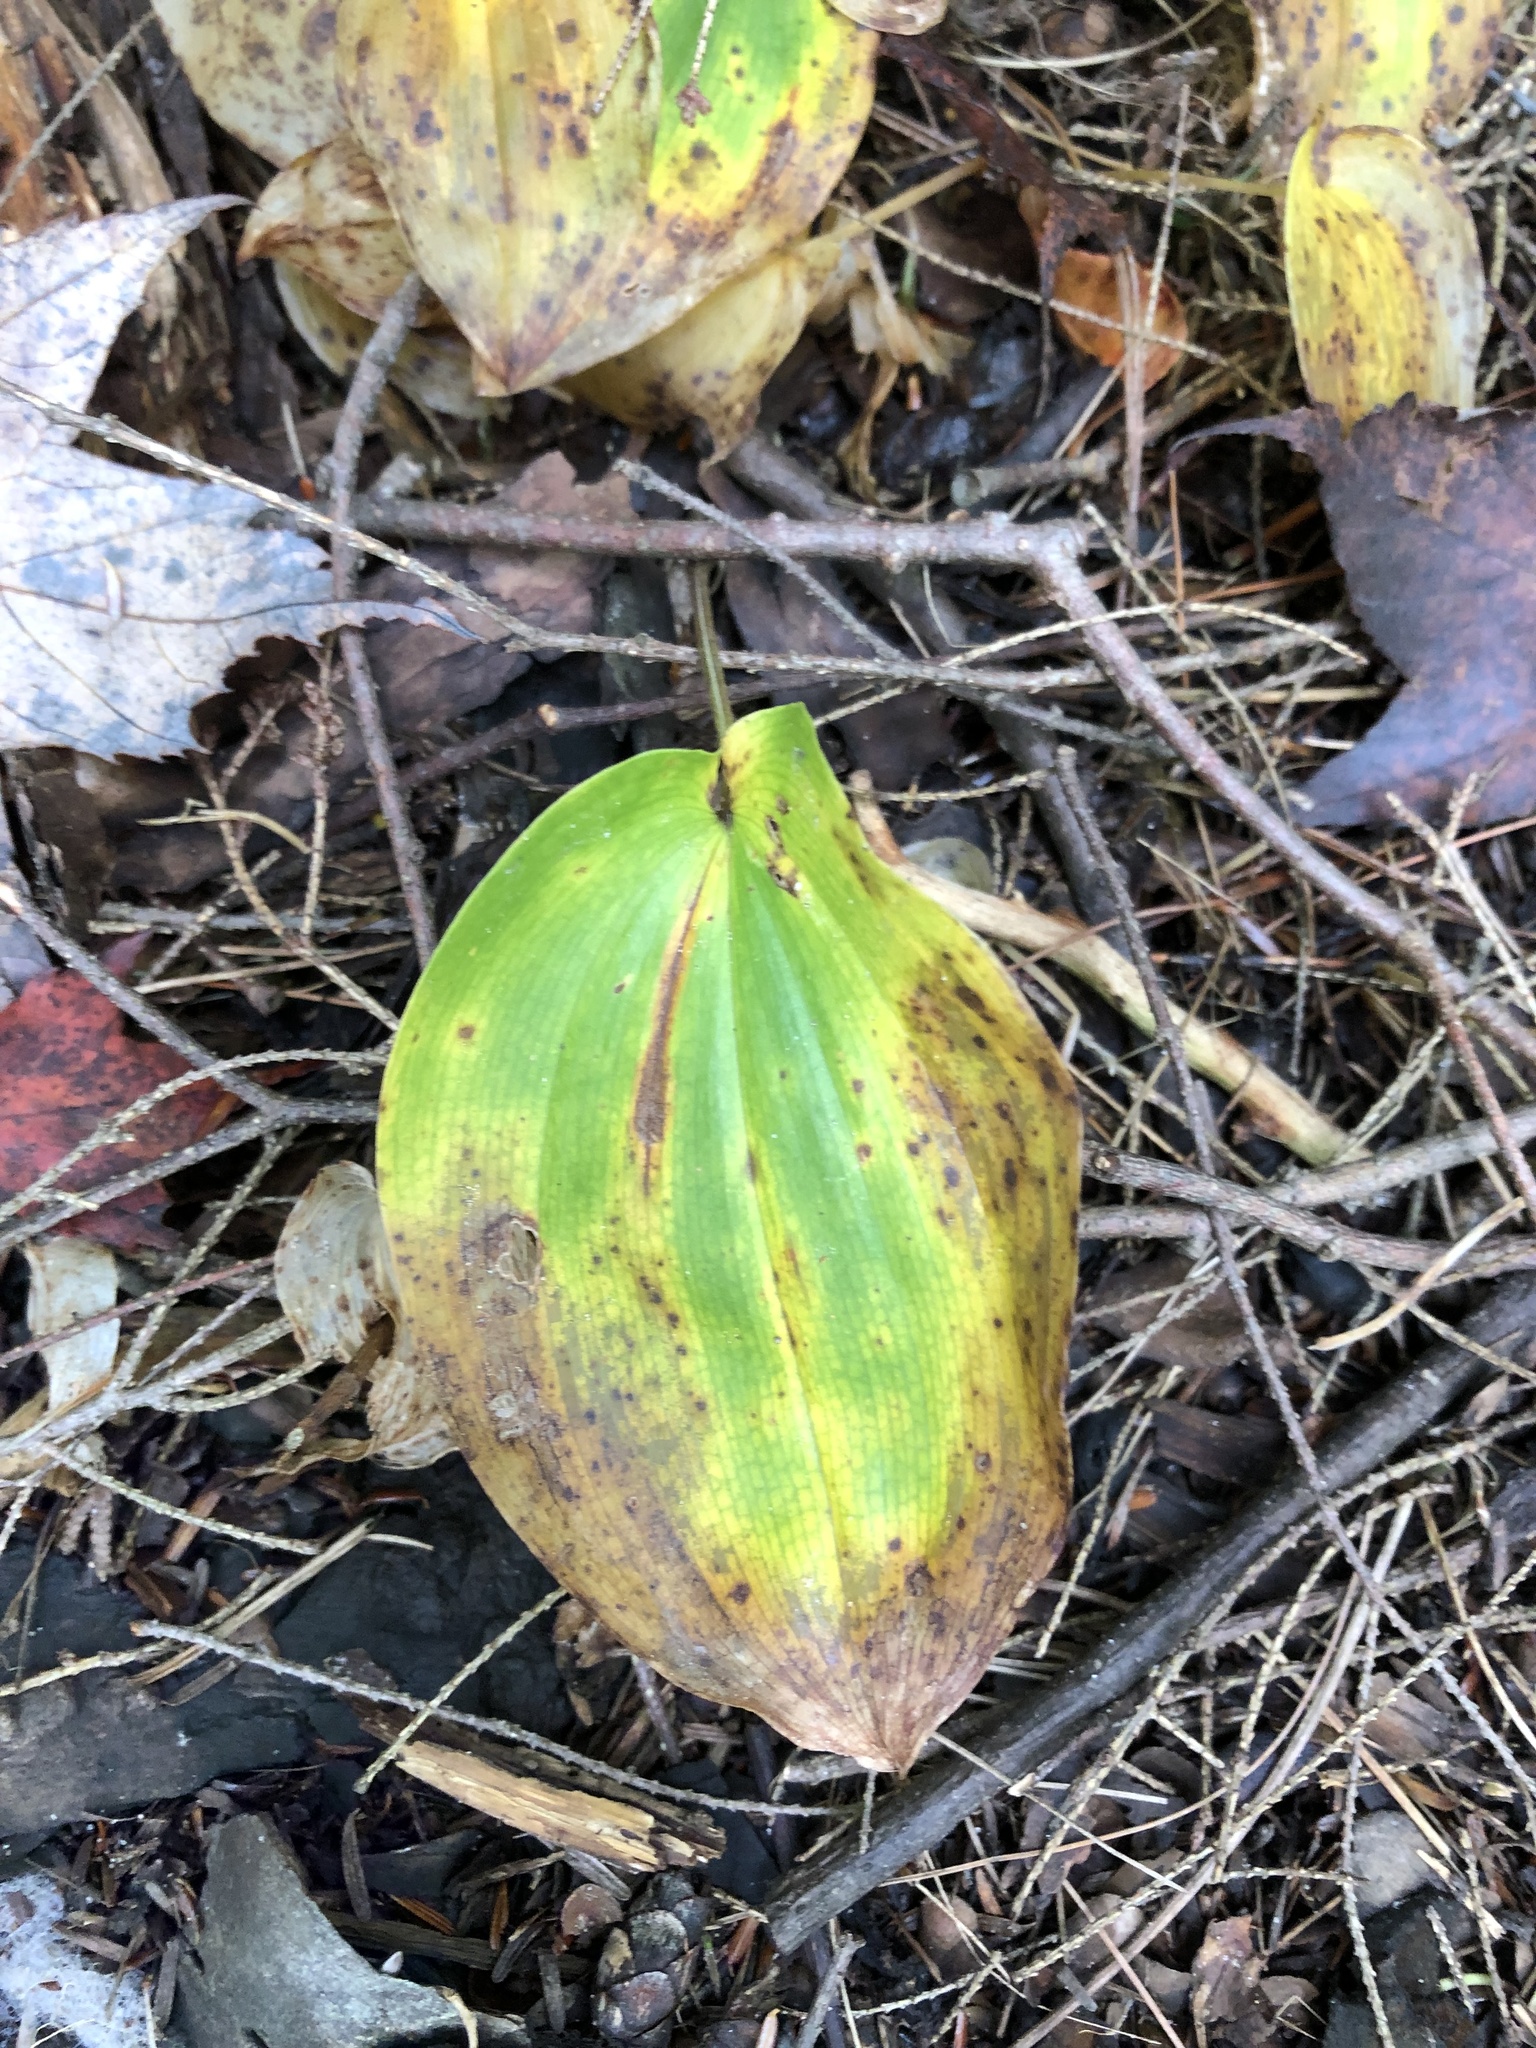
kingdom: Plantae
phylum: Tracheophyta
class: Liliopsida
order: Asparagales
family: Asparagaceae
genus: Maianthemum
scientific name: Maianthemum canadense
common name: False lily-of-the-valley
